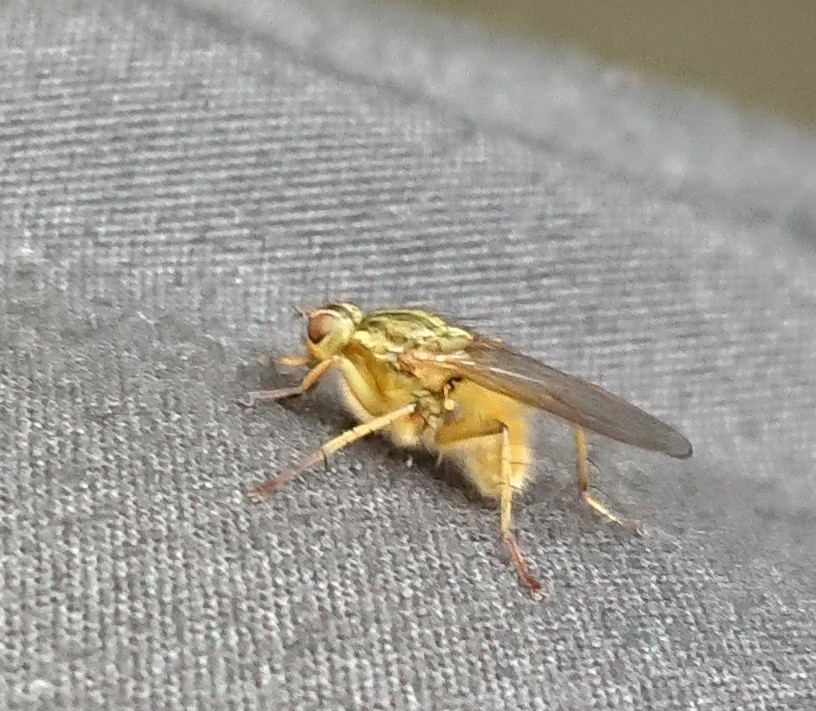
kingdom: Animalia
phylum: Arthropoda
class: Insecta
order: Diptera
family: Scathophagidae
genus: Scathophaga
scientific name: Scathophaga stercoraria
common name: Yellow dung fly
